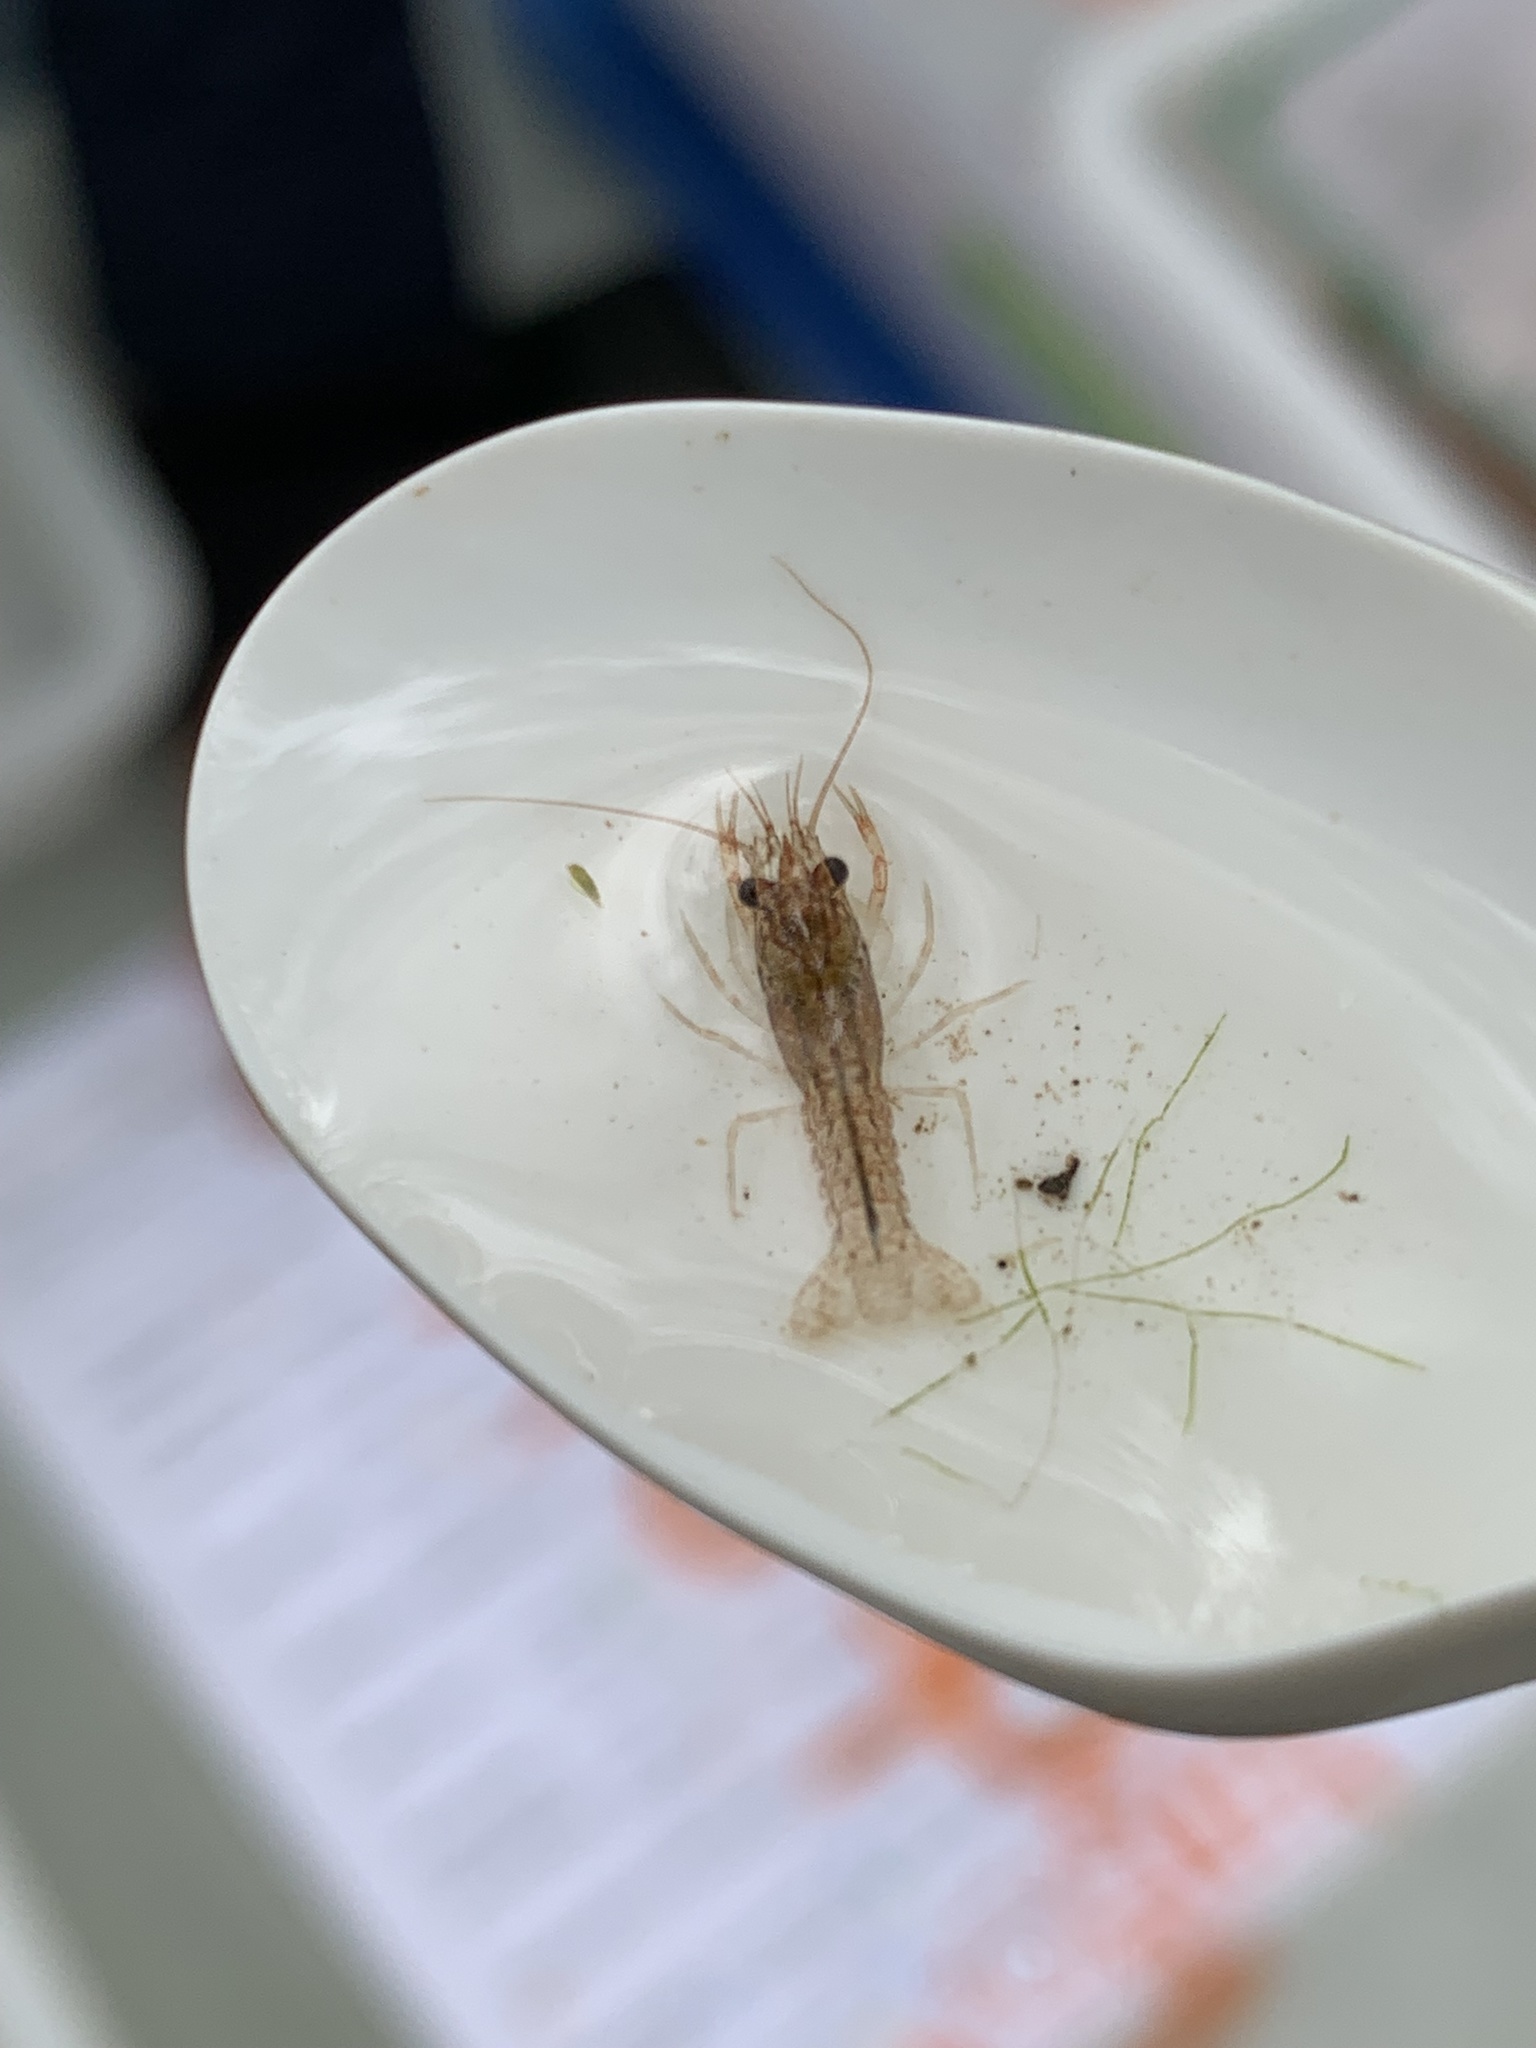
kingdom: Animalia
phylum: Arthropoda
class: Malacostraca
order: Decapoda
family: Cambaridae
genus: Procambarus
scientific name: Procambarus clarkii
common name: Red swamp crayfish
